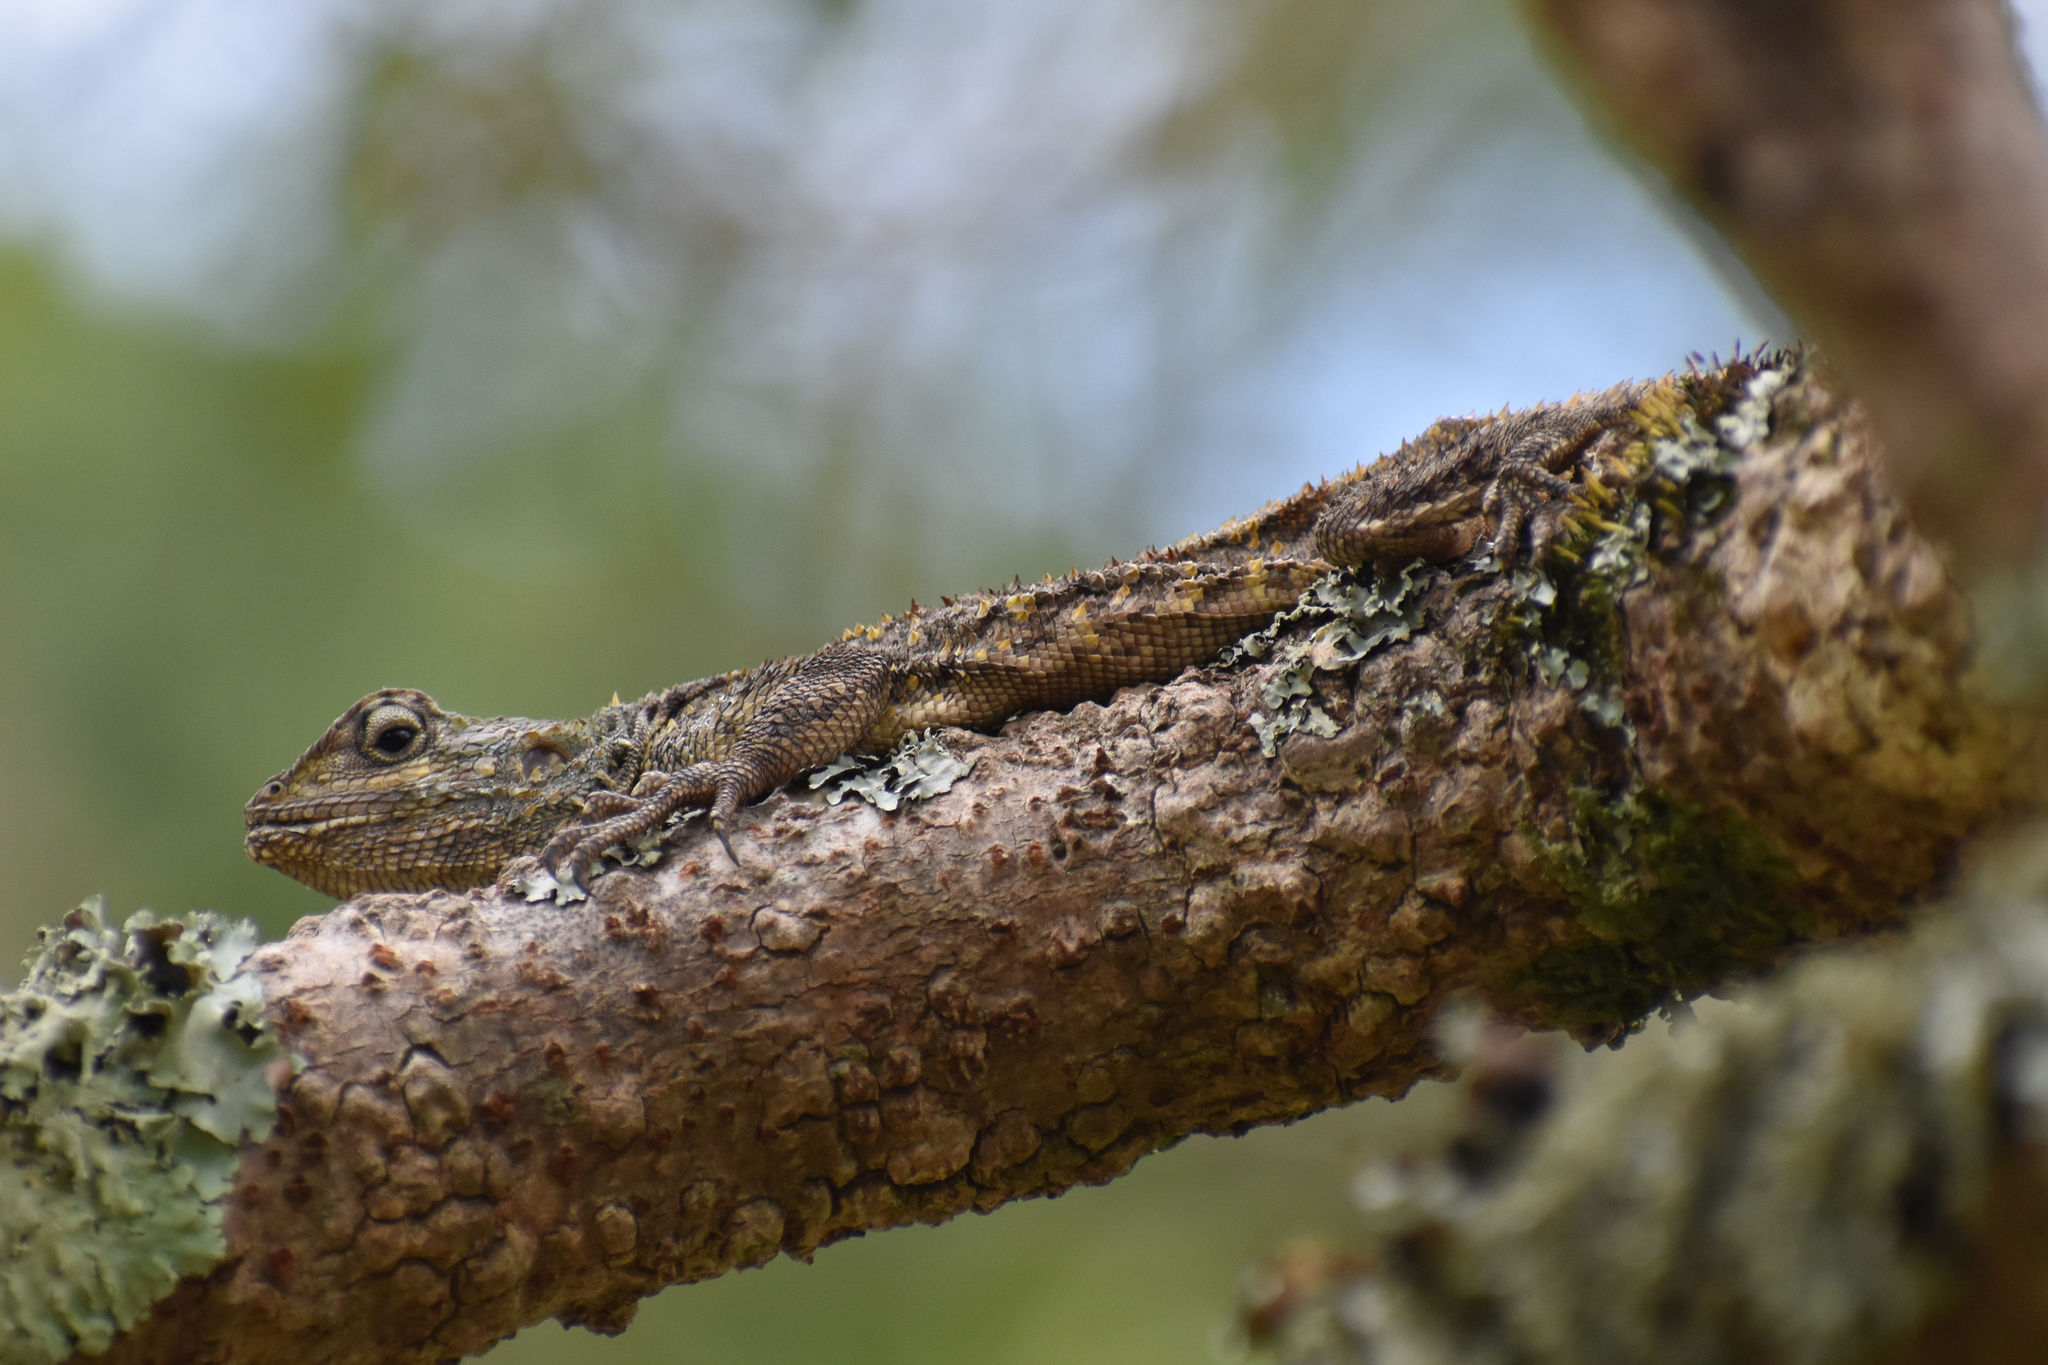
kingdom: Animalia
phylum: Chordata
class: Squamata
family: Agamidae
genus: Acanthocercus
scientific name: Acanthocercus atricollis
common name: Southern tree agama
